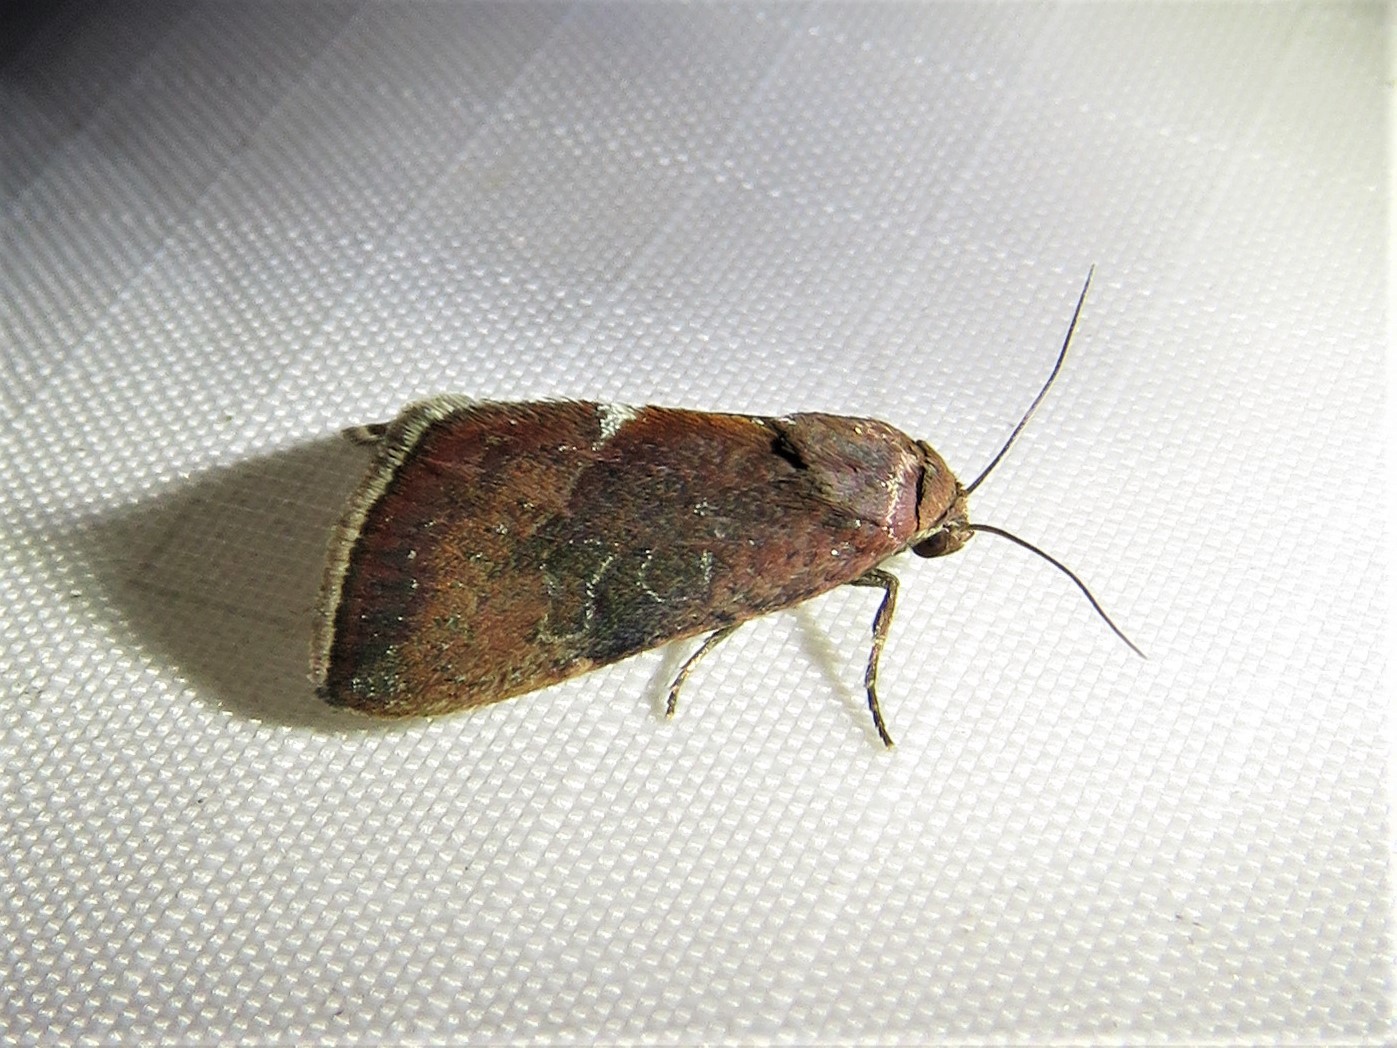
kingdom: Animalia
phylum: Arthropoda
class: Insecta
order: Lepidoptera
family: Noctuidae
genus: Galgula
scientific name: Galgula partita
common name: Wedgeling
